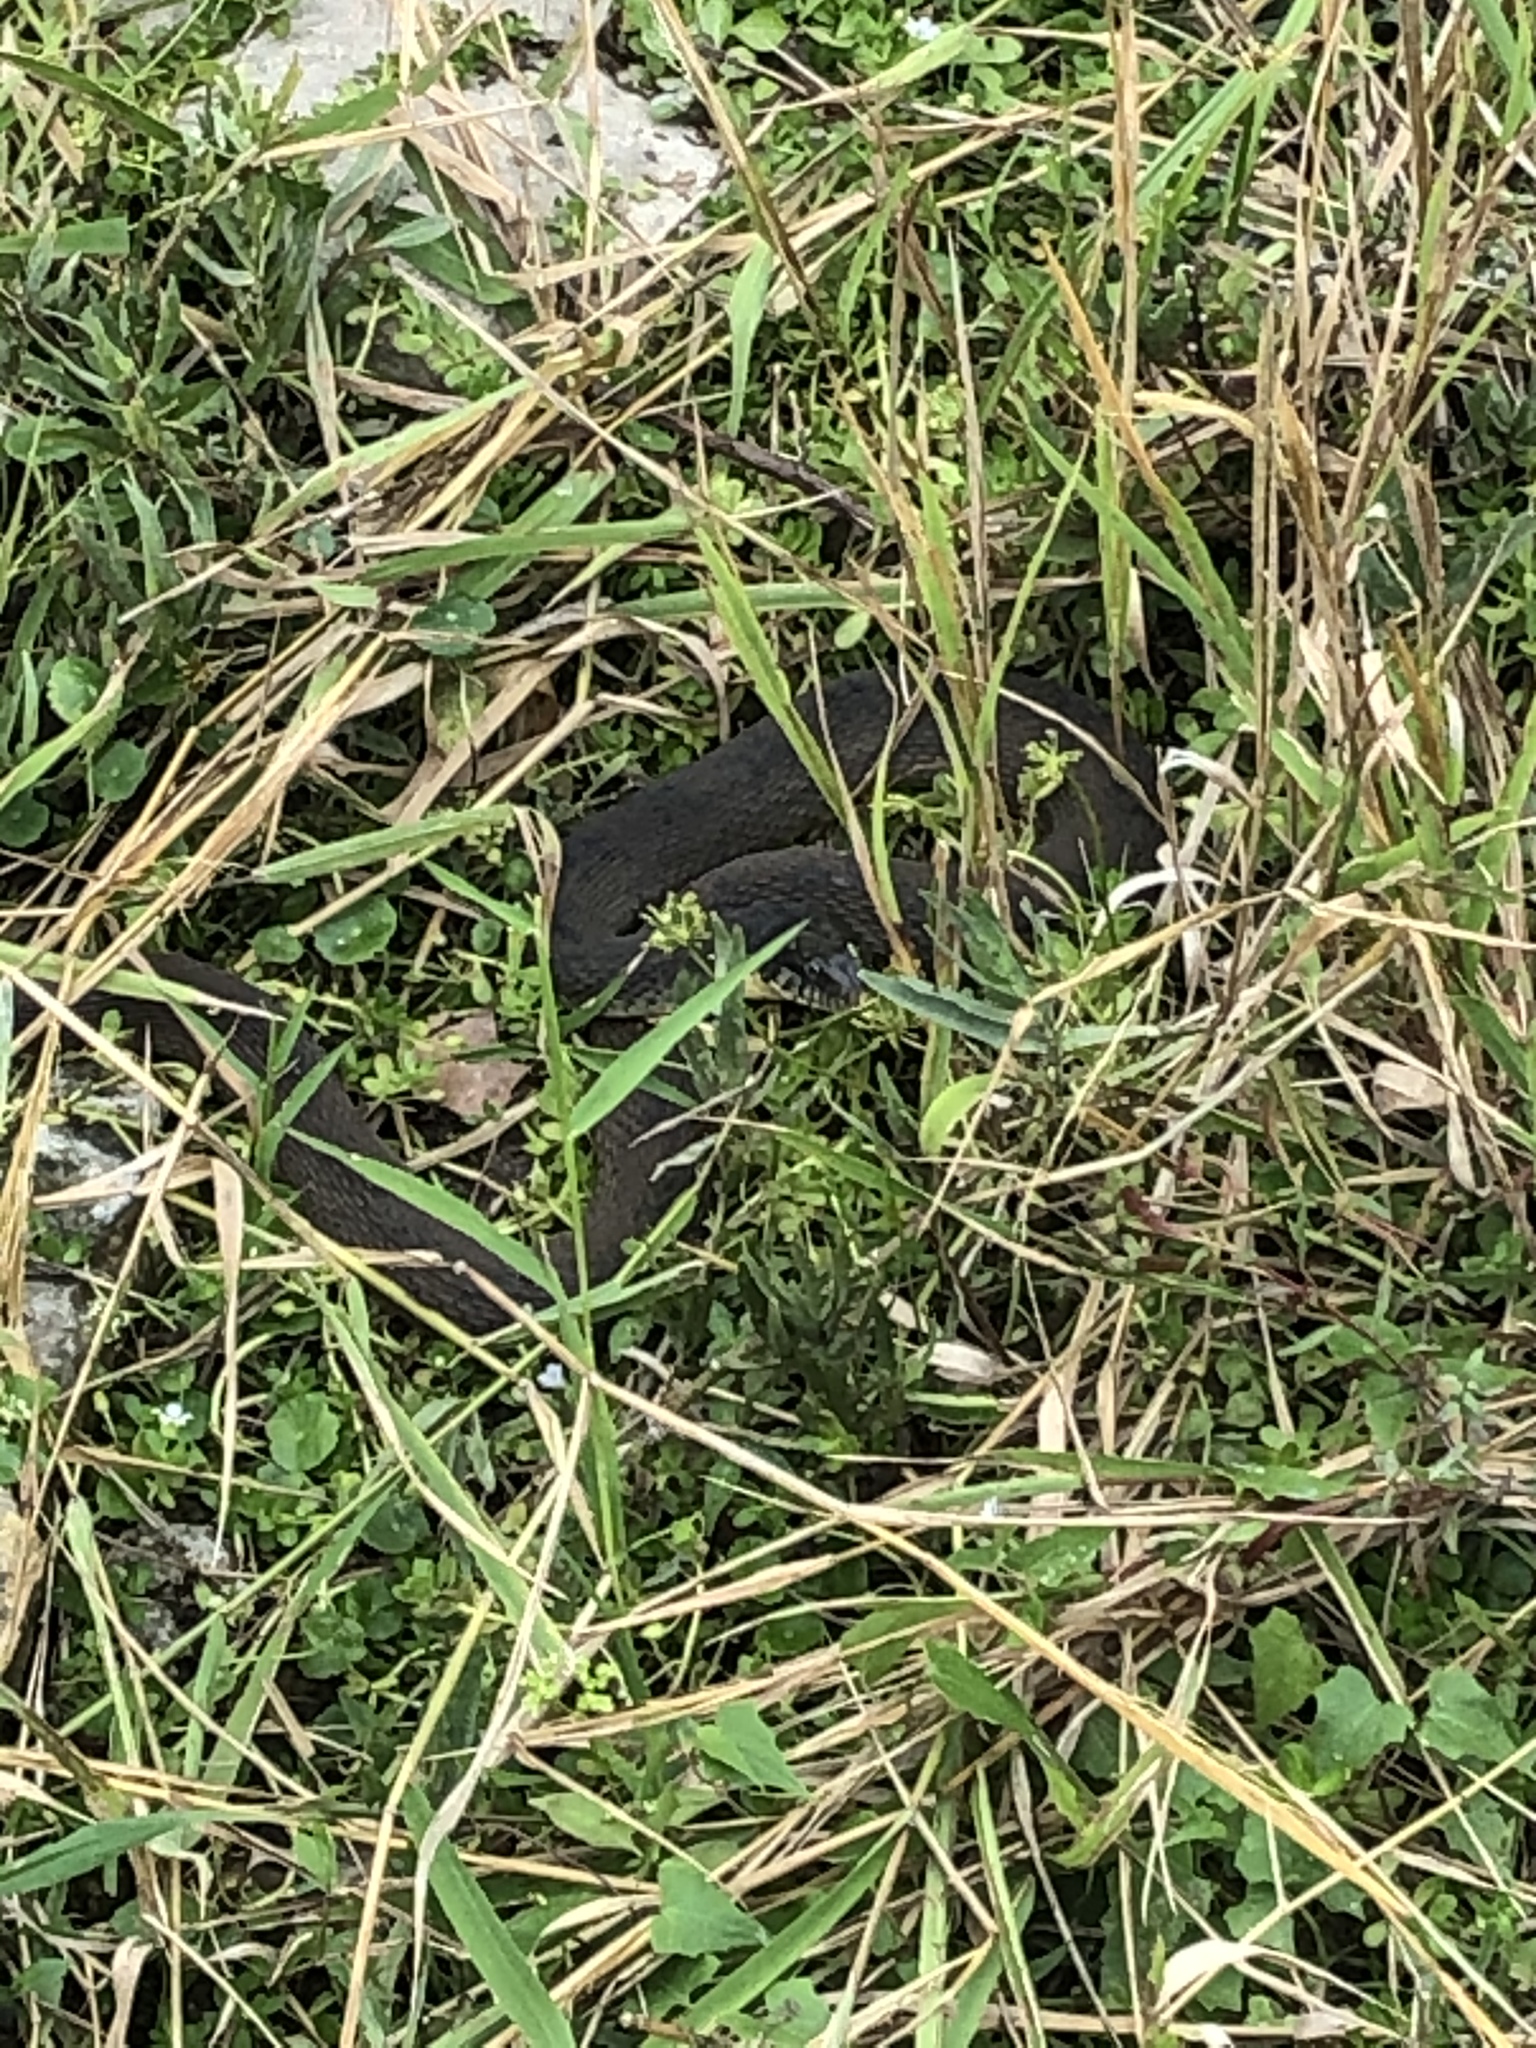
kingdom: Animalia
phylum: Chordata
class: Squamata
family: Colubridae
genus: Nerodia
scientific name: Nerodia erythrogaster
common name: Plainbelly water snake
